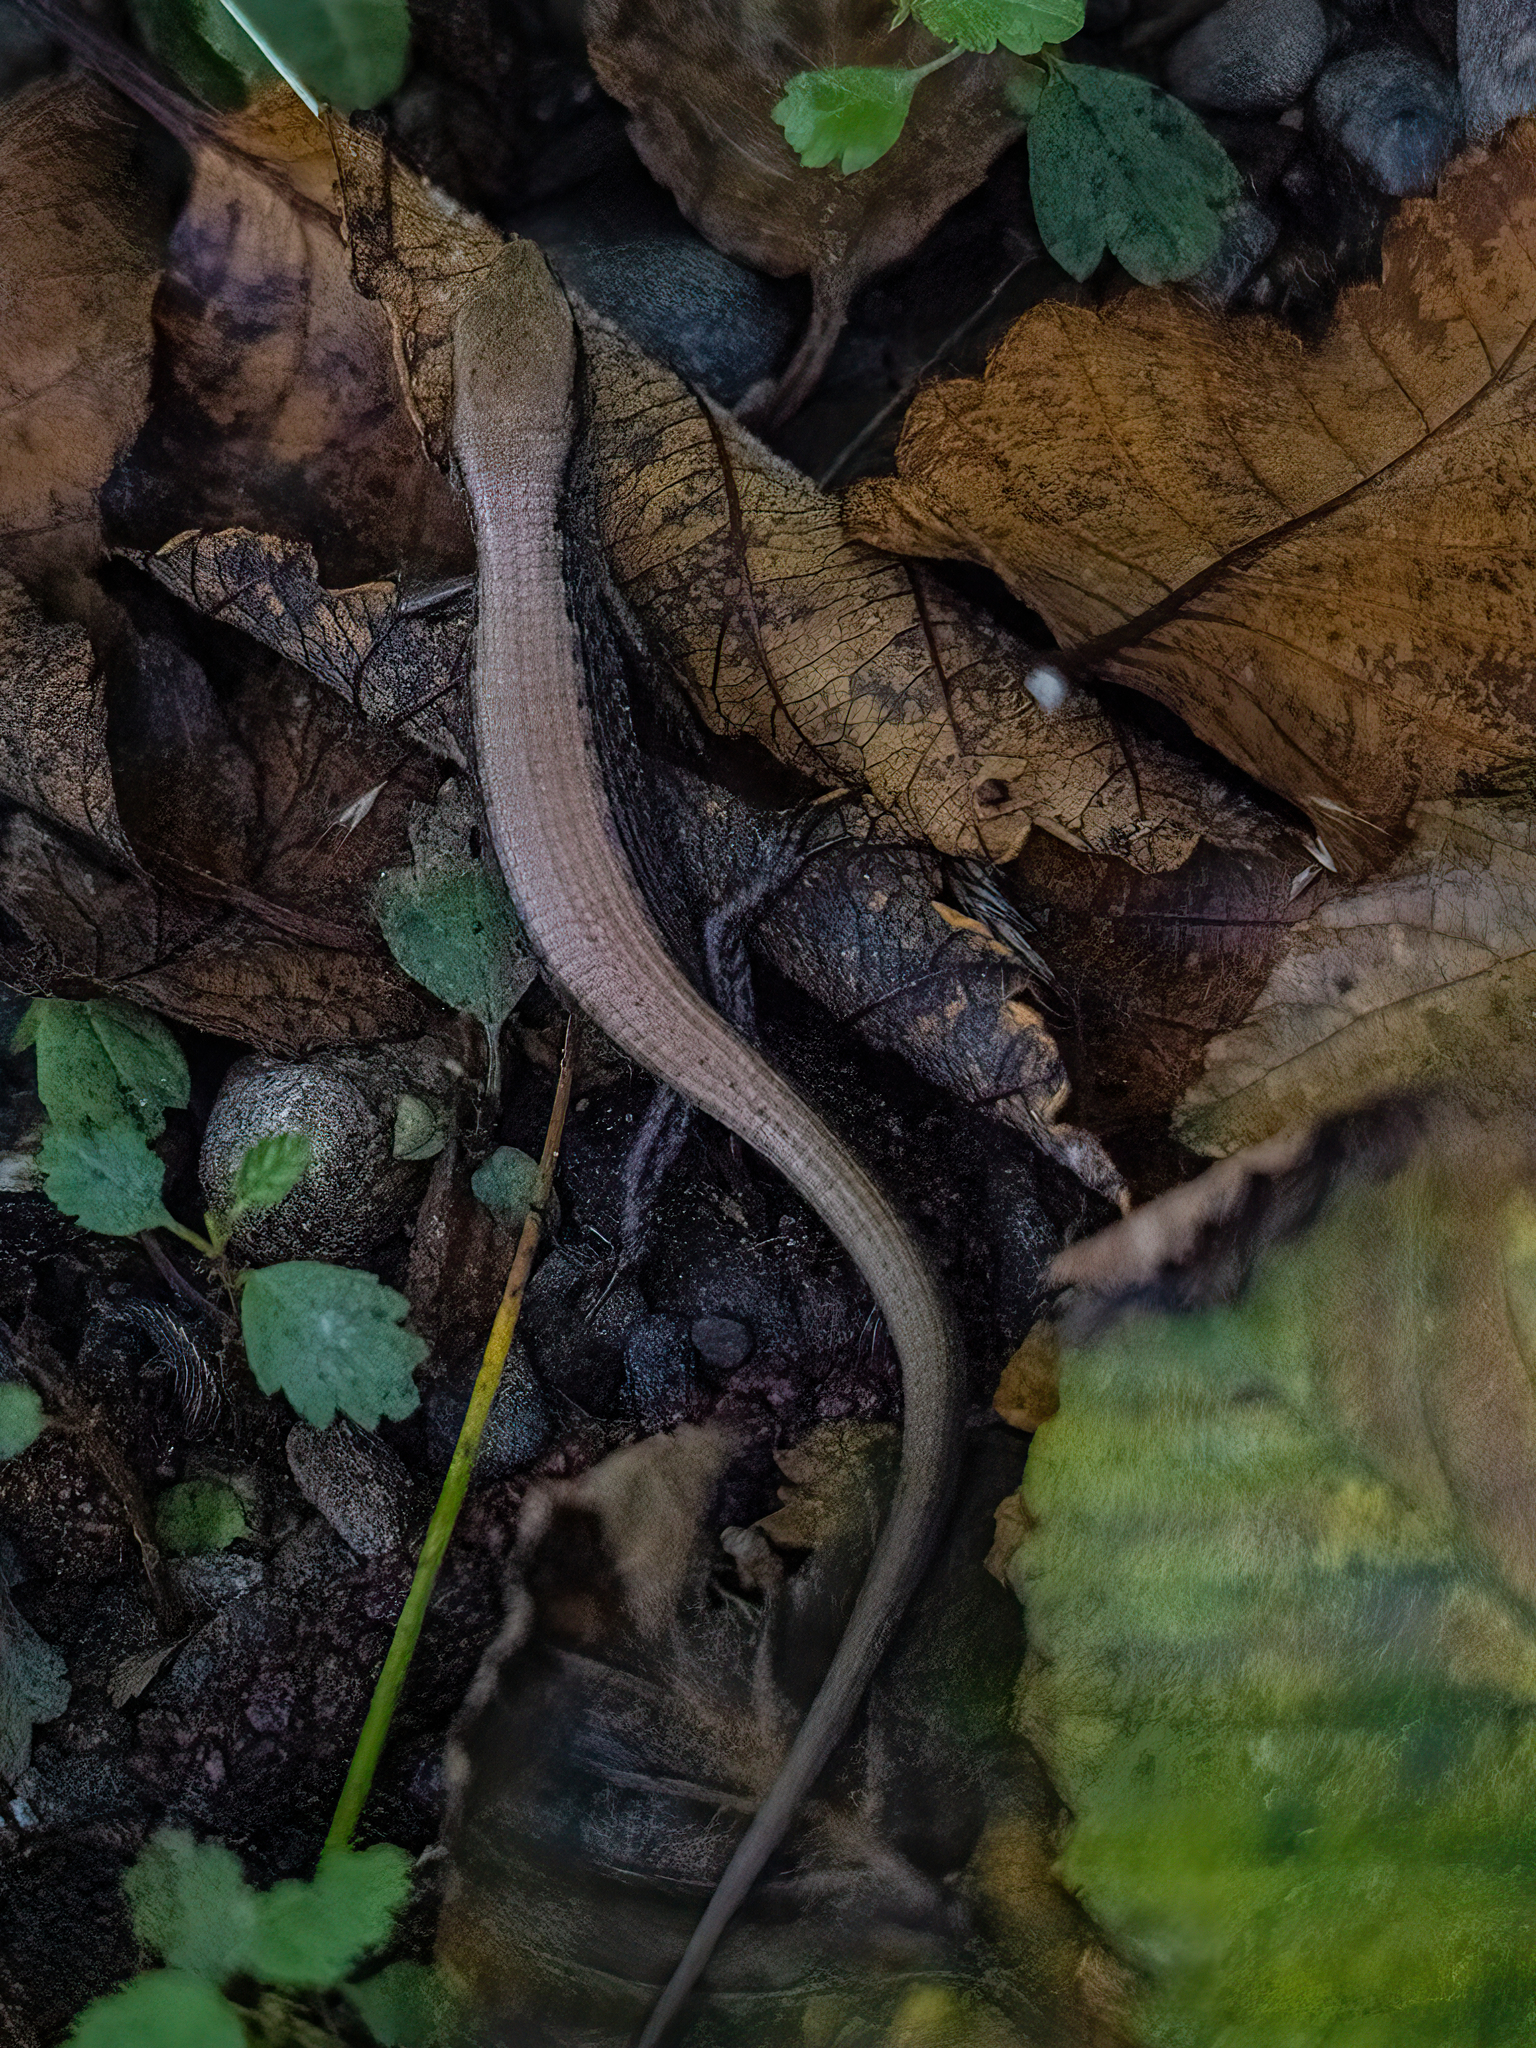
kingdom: Animalia
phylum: Chordata
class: Squamata
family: Anguidae
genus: Elgaria
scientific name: Elgaria coerulea
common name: Northern alligator lizard
